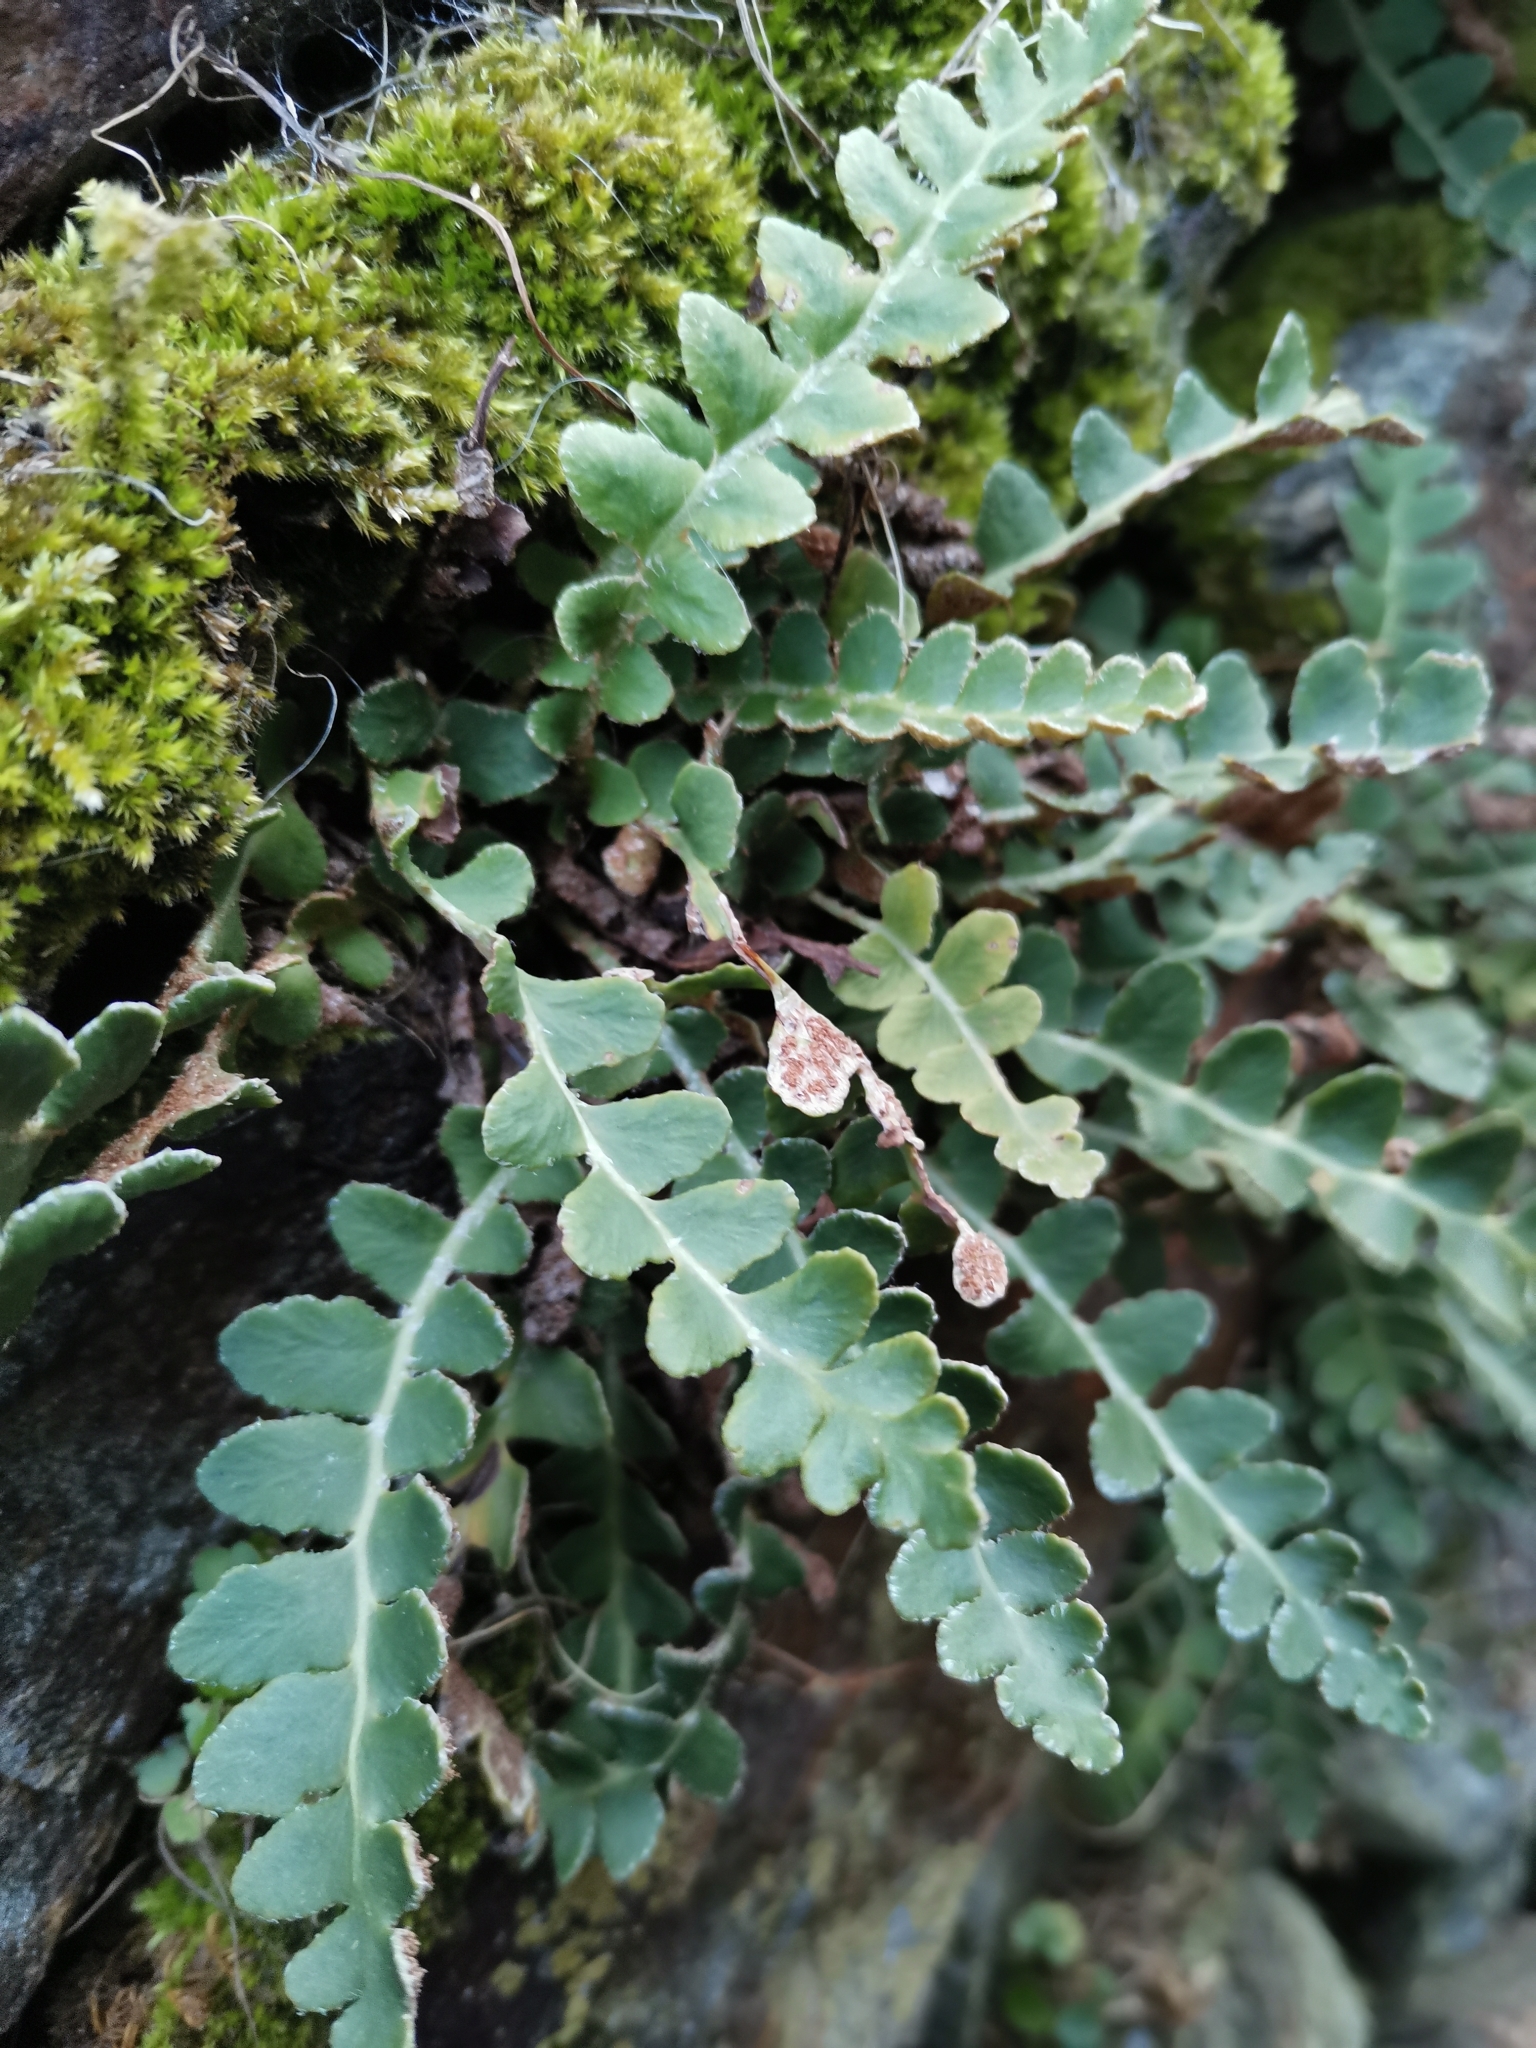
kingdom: Plantae
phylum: Tracheophyta
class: Polypodiopsida
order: Polypodiales
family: Aspleniaceae
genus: Asplenium
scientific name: Asplenium ceterach
